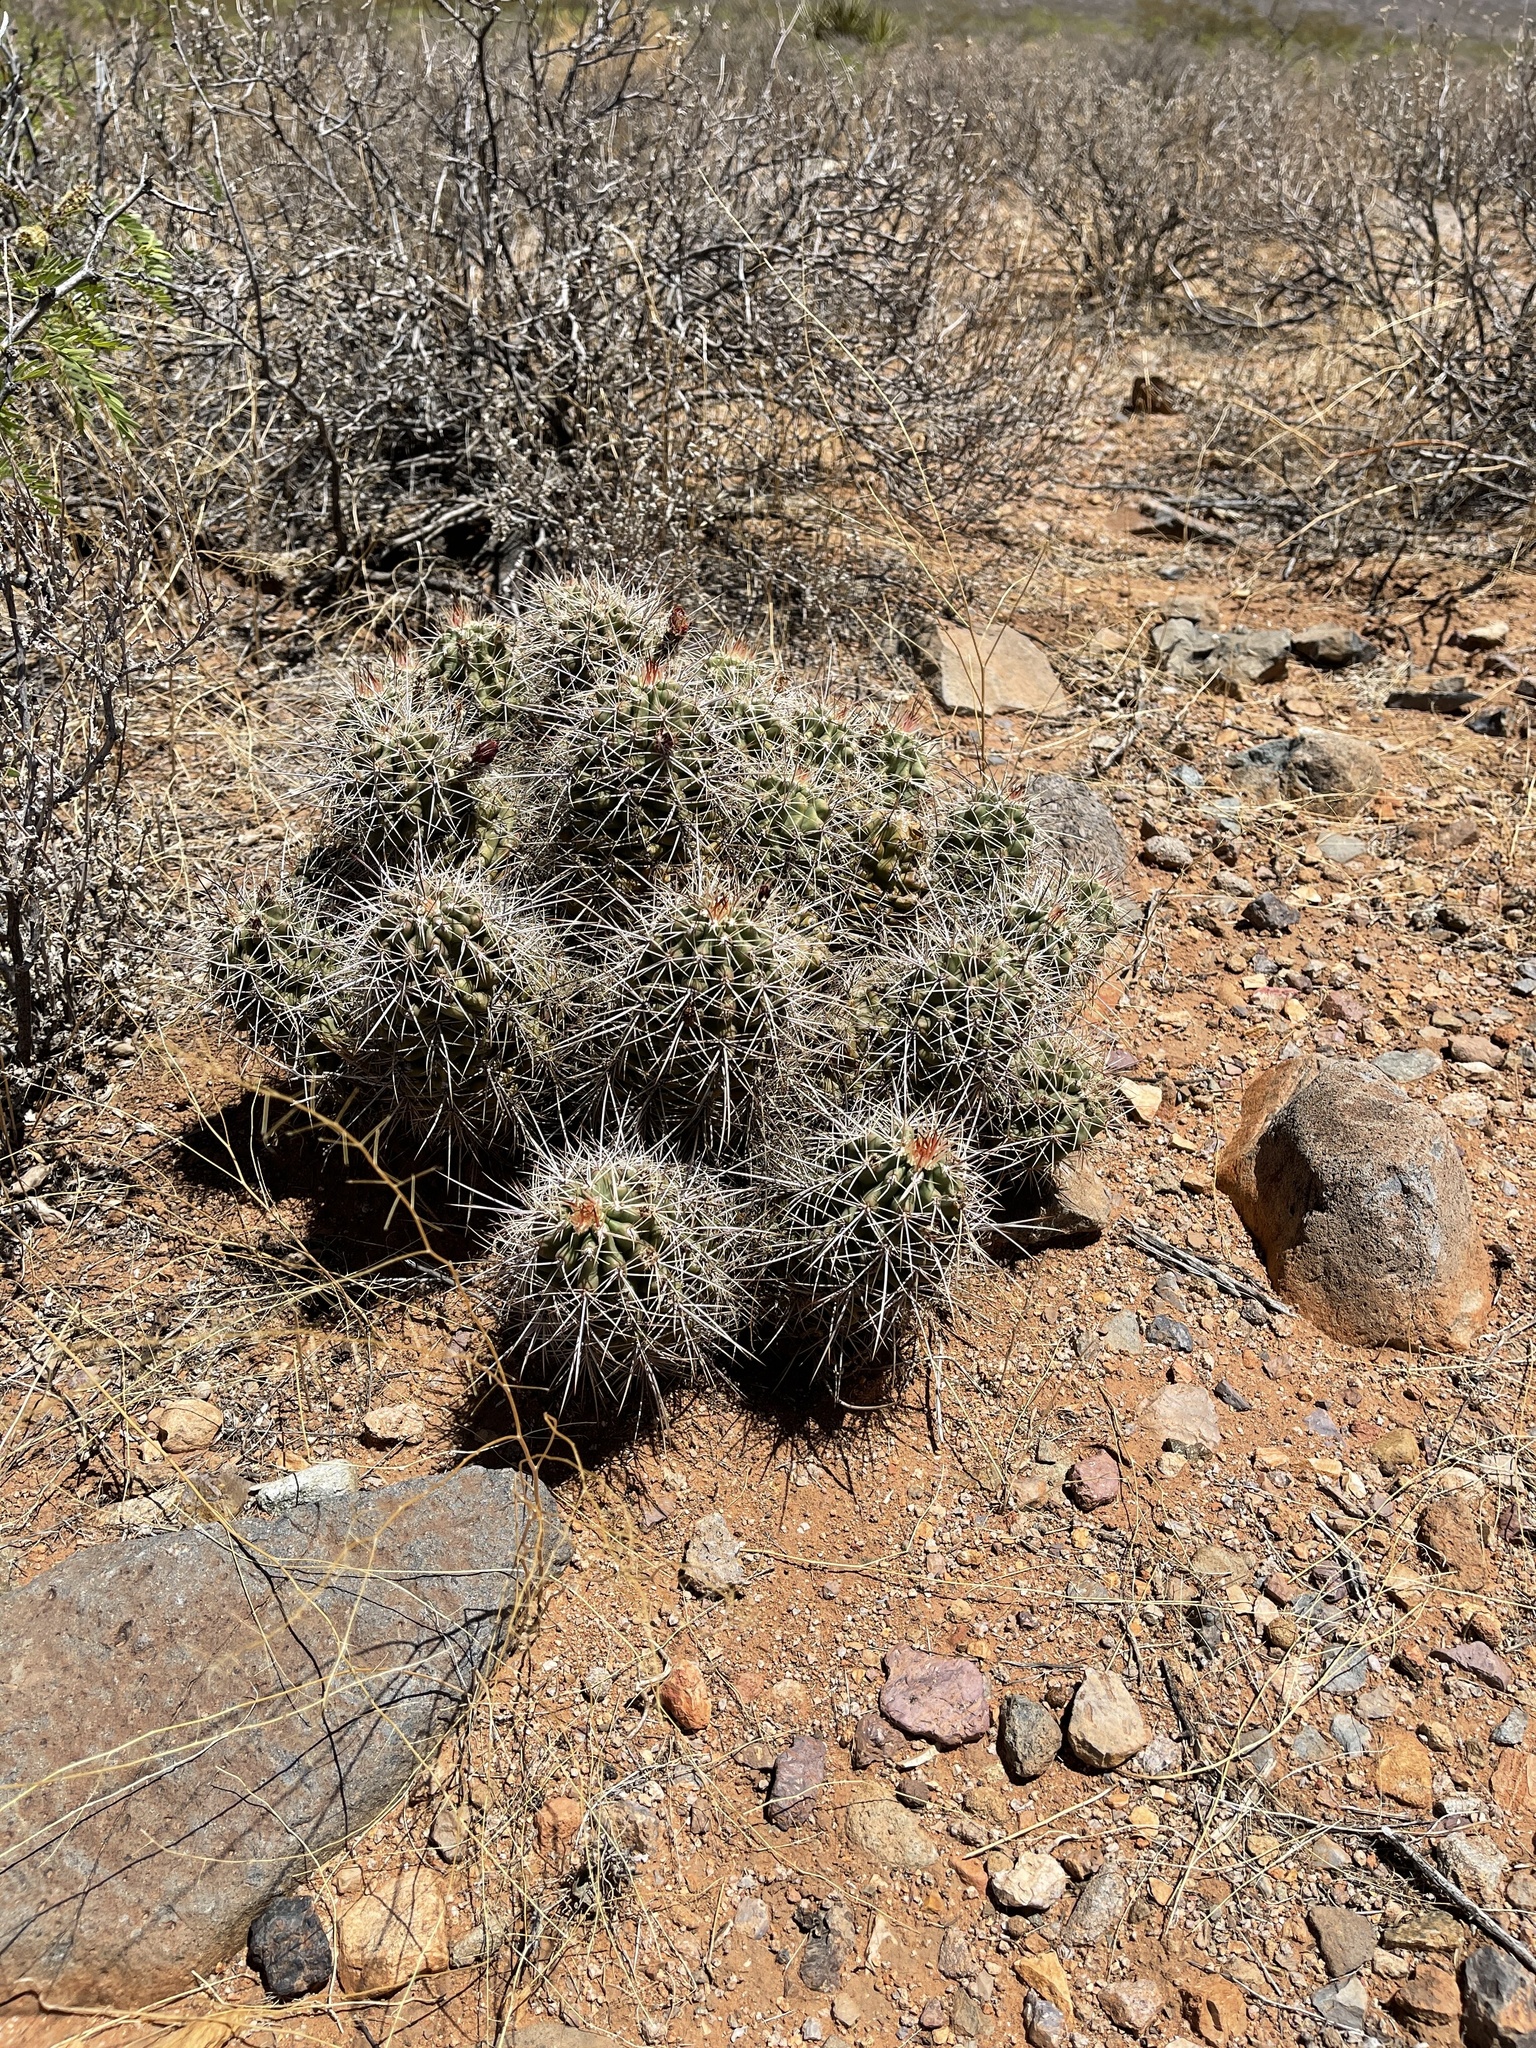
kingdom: Plantae
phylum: Tracheophyta
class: Magnoliopsida
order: Caryophyllales
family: Cactaceae
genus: Echinocereus
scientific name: Echinocereus coccineus
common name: Scarlet hedgehog cactus
